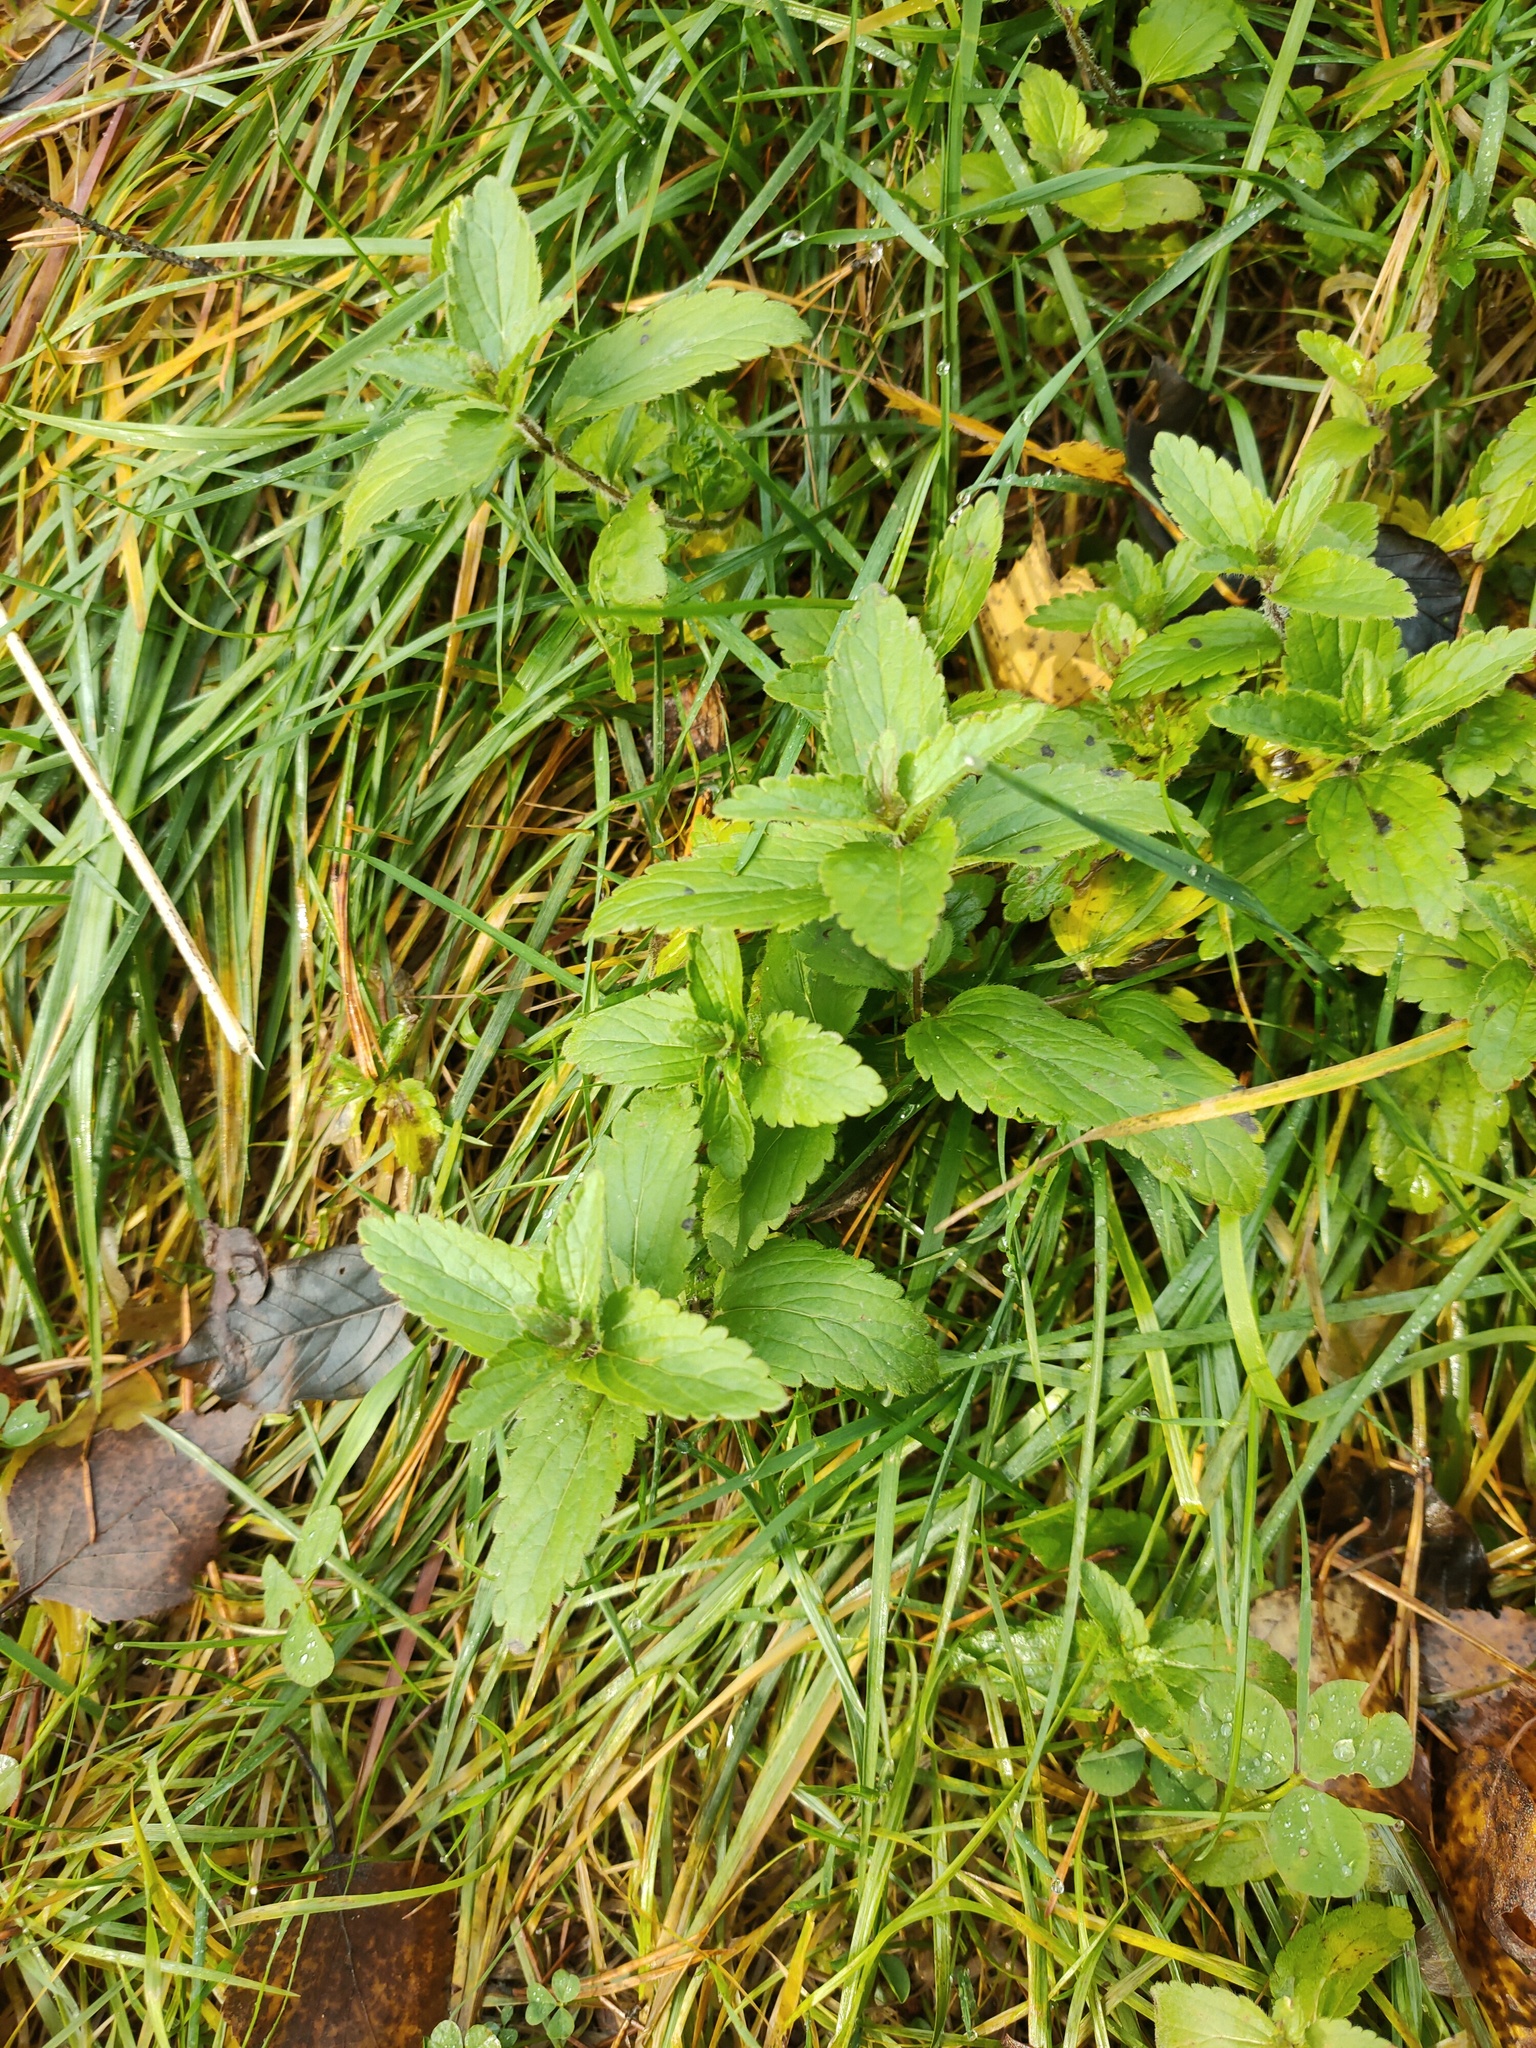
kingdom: Plantae
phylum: Tracheophyta
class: Magnoliopsida
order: Lamiales
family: Plantaginaceae
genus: Veronica
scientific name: Veronica chamaedrys
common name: Germander speedwell
